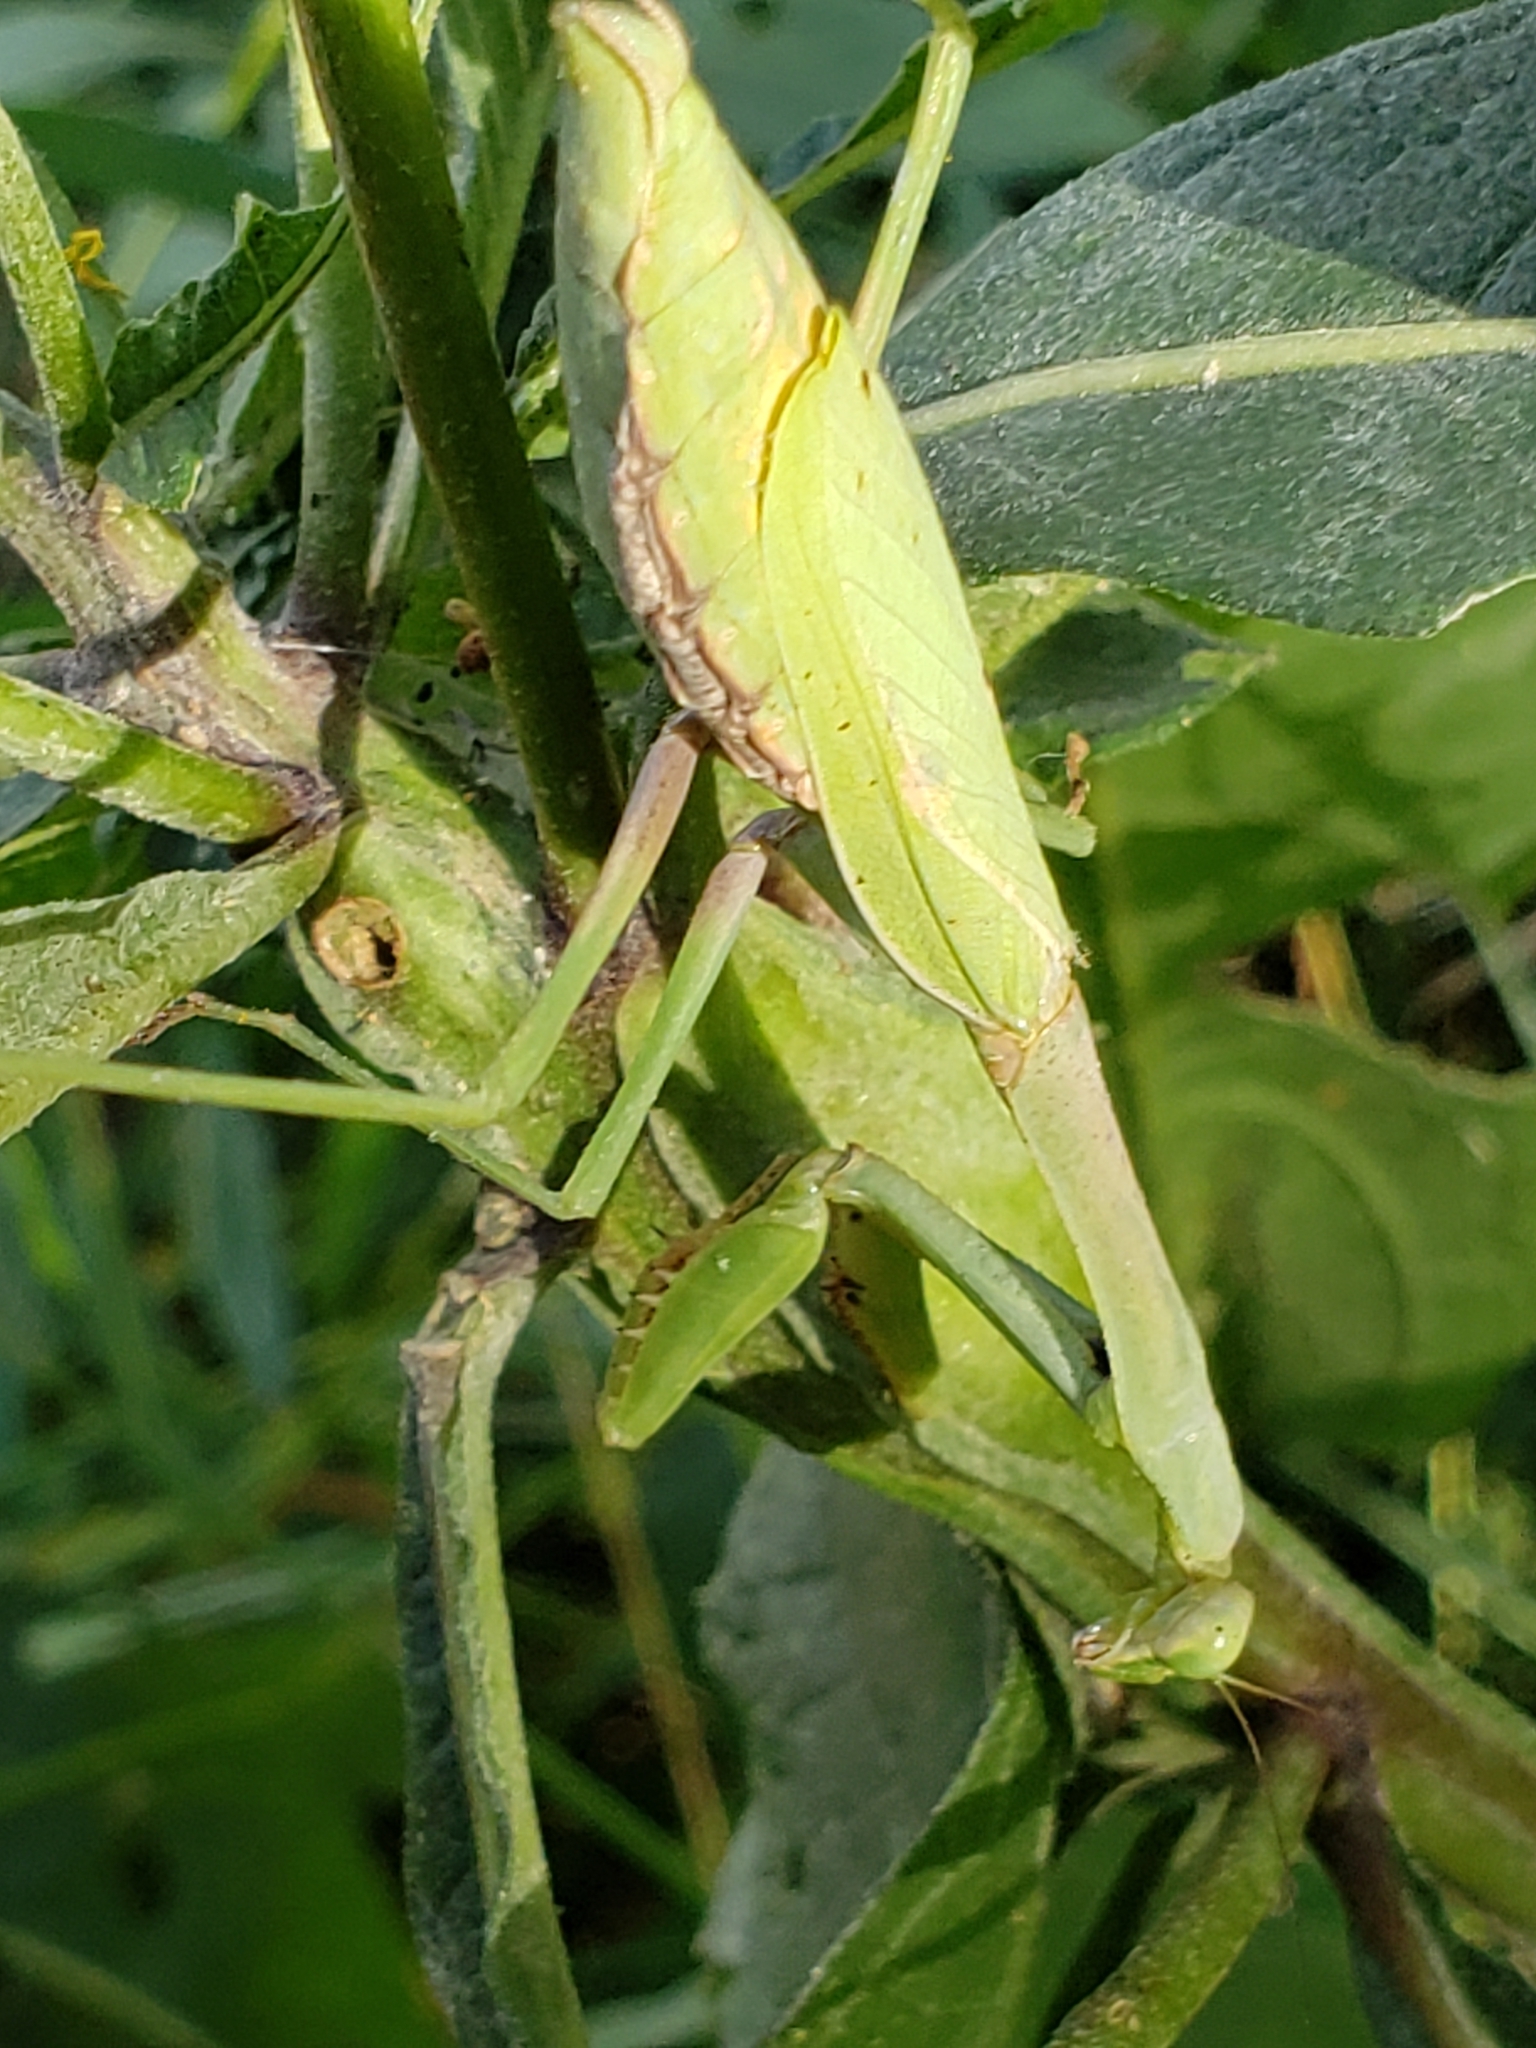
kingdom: Animalia
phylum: Arthropoda
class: Insecta
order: Mantodea
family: Mantidae
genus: Stagmomantis
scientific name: Stagmomantis carolina
